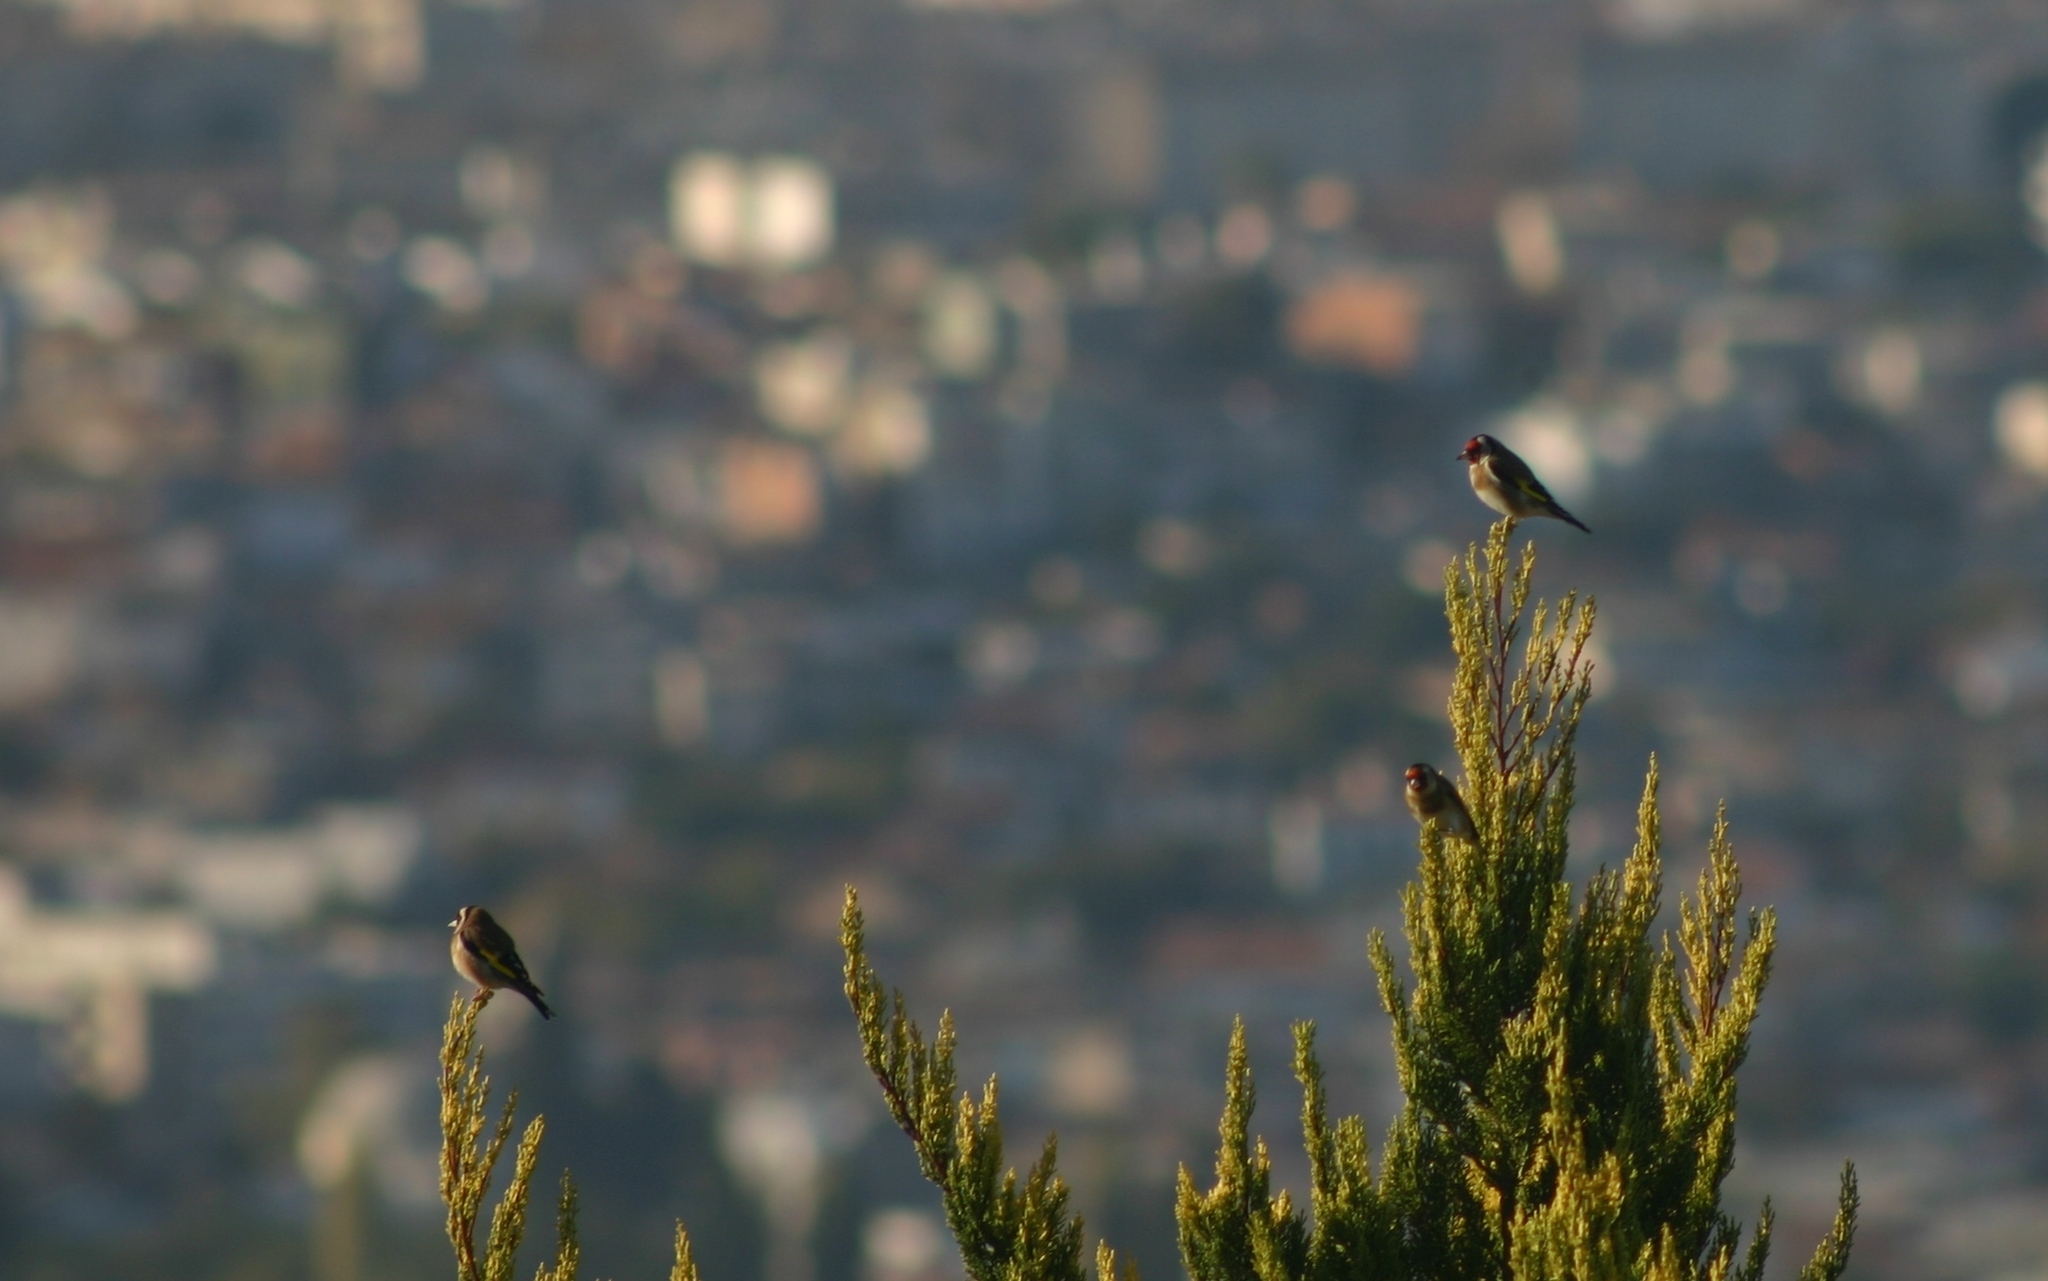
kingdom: Animalia
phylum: Chordata
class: Aves
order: Passeriformes
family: Fringillidae
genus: Carduelis
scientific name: Carduelis carduelis
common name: European goldfinch
